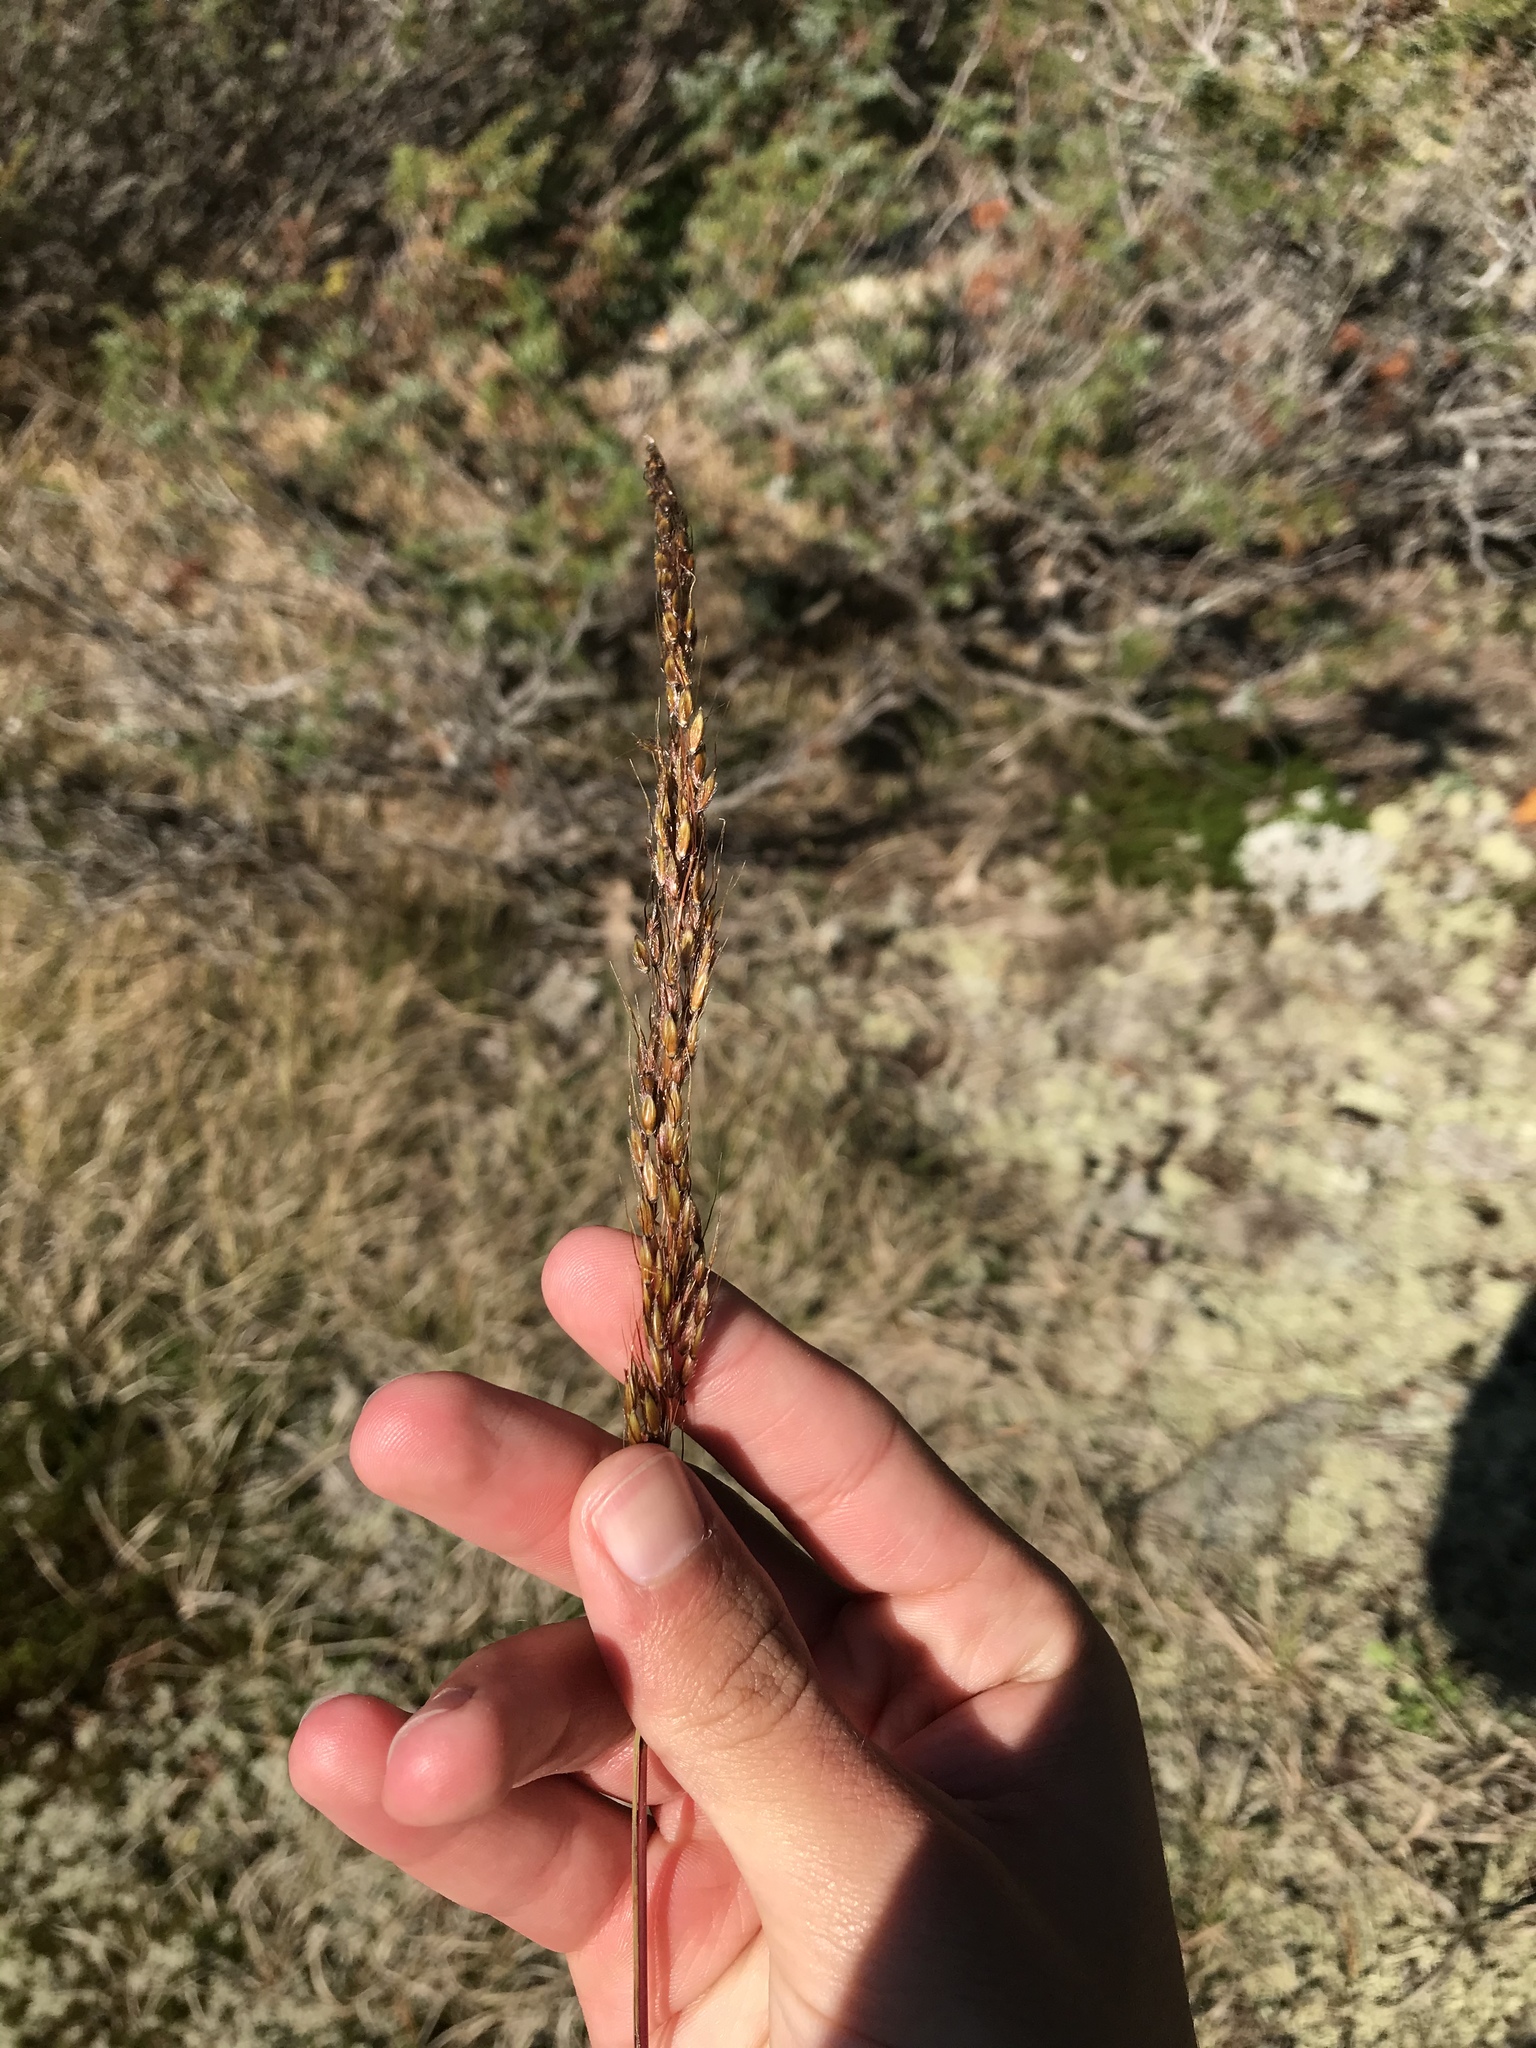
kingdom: Plantae
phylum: Tracheophyta
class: Liliopsida
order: Poales
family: Poaceae
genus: Sorghastrum
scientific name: Sorghastrum nutans
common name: Indian grass
